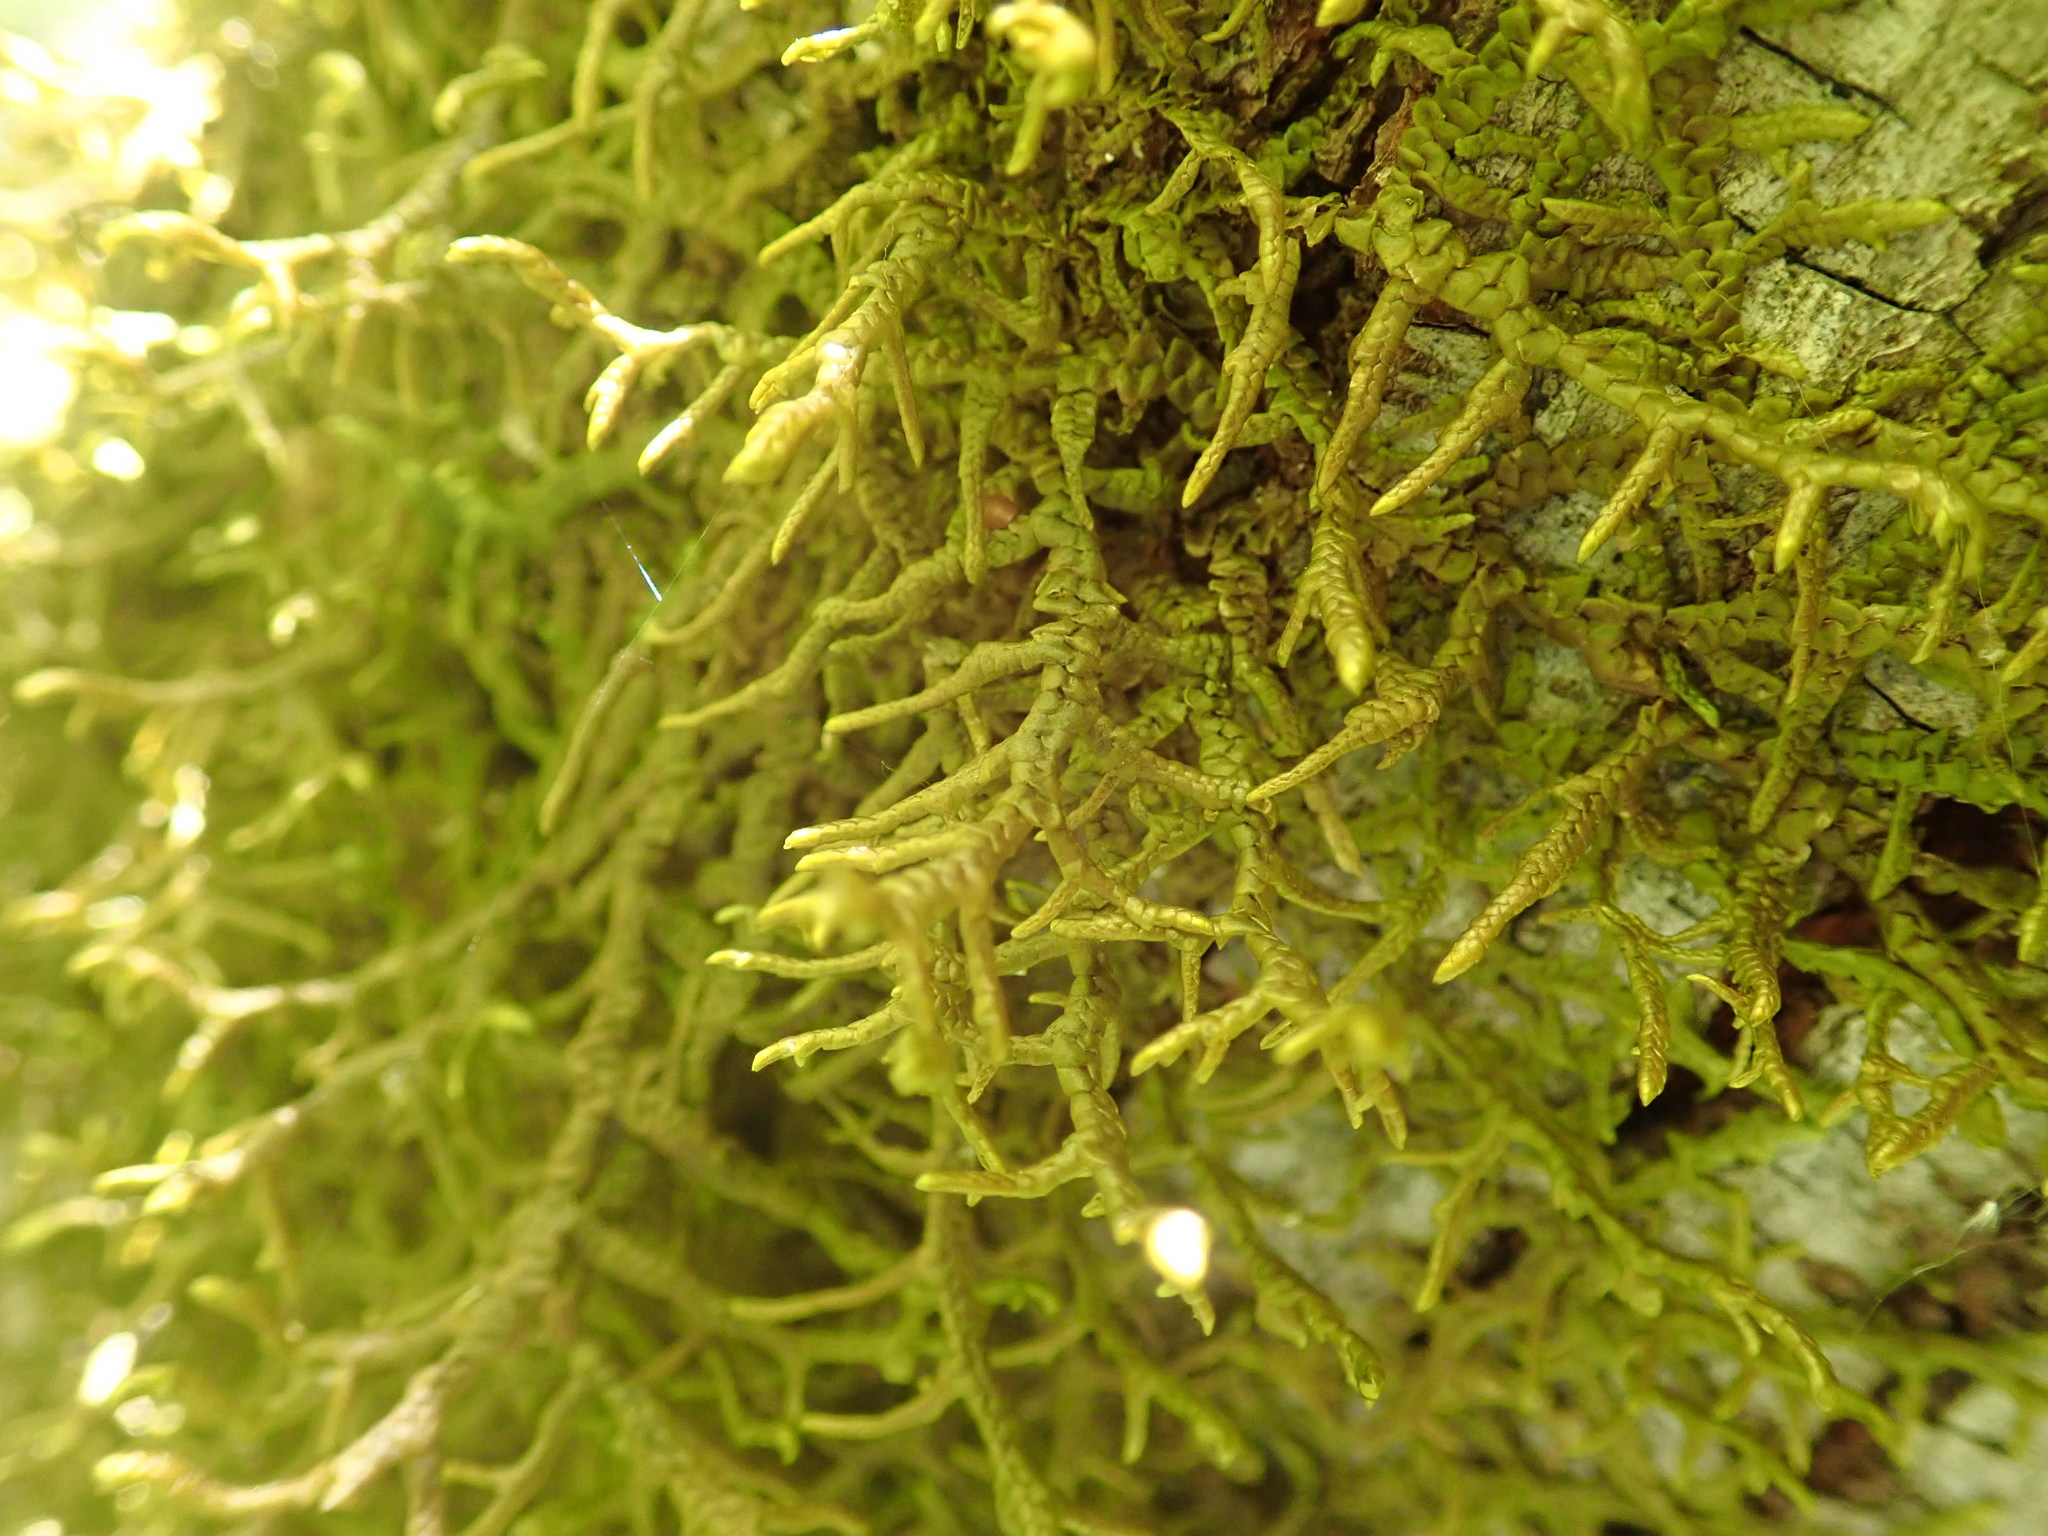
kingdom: Plantae
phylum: Marchantiophyta
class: Jungermanniopsida
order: Porellales
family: Porellaceae
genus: Porella
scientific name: Porella navicularis
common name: Tree ruffle liverwort
